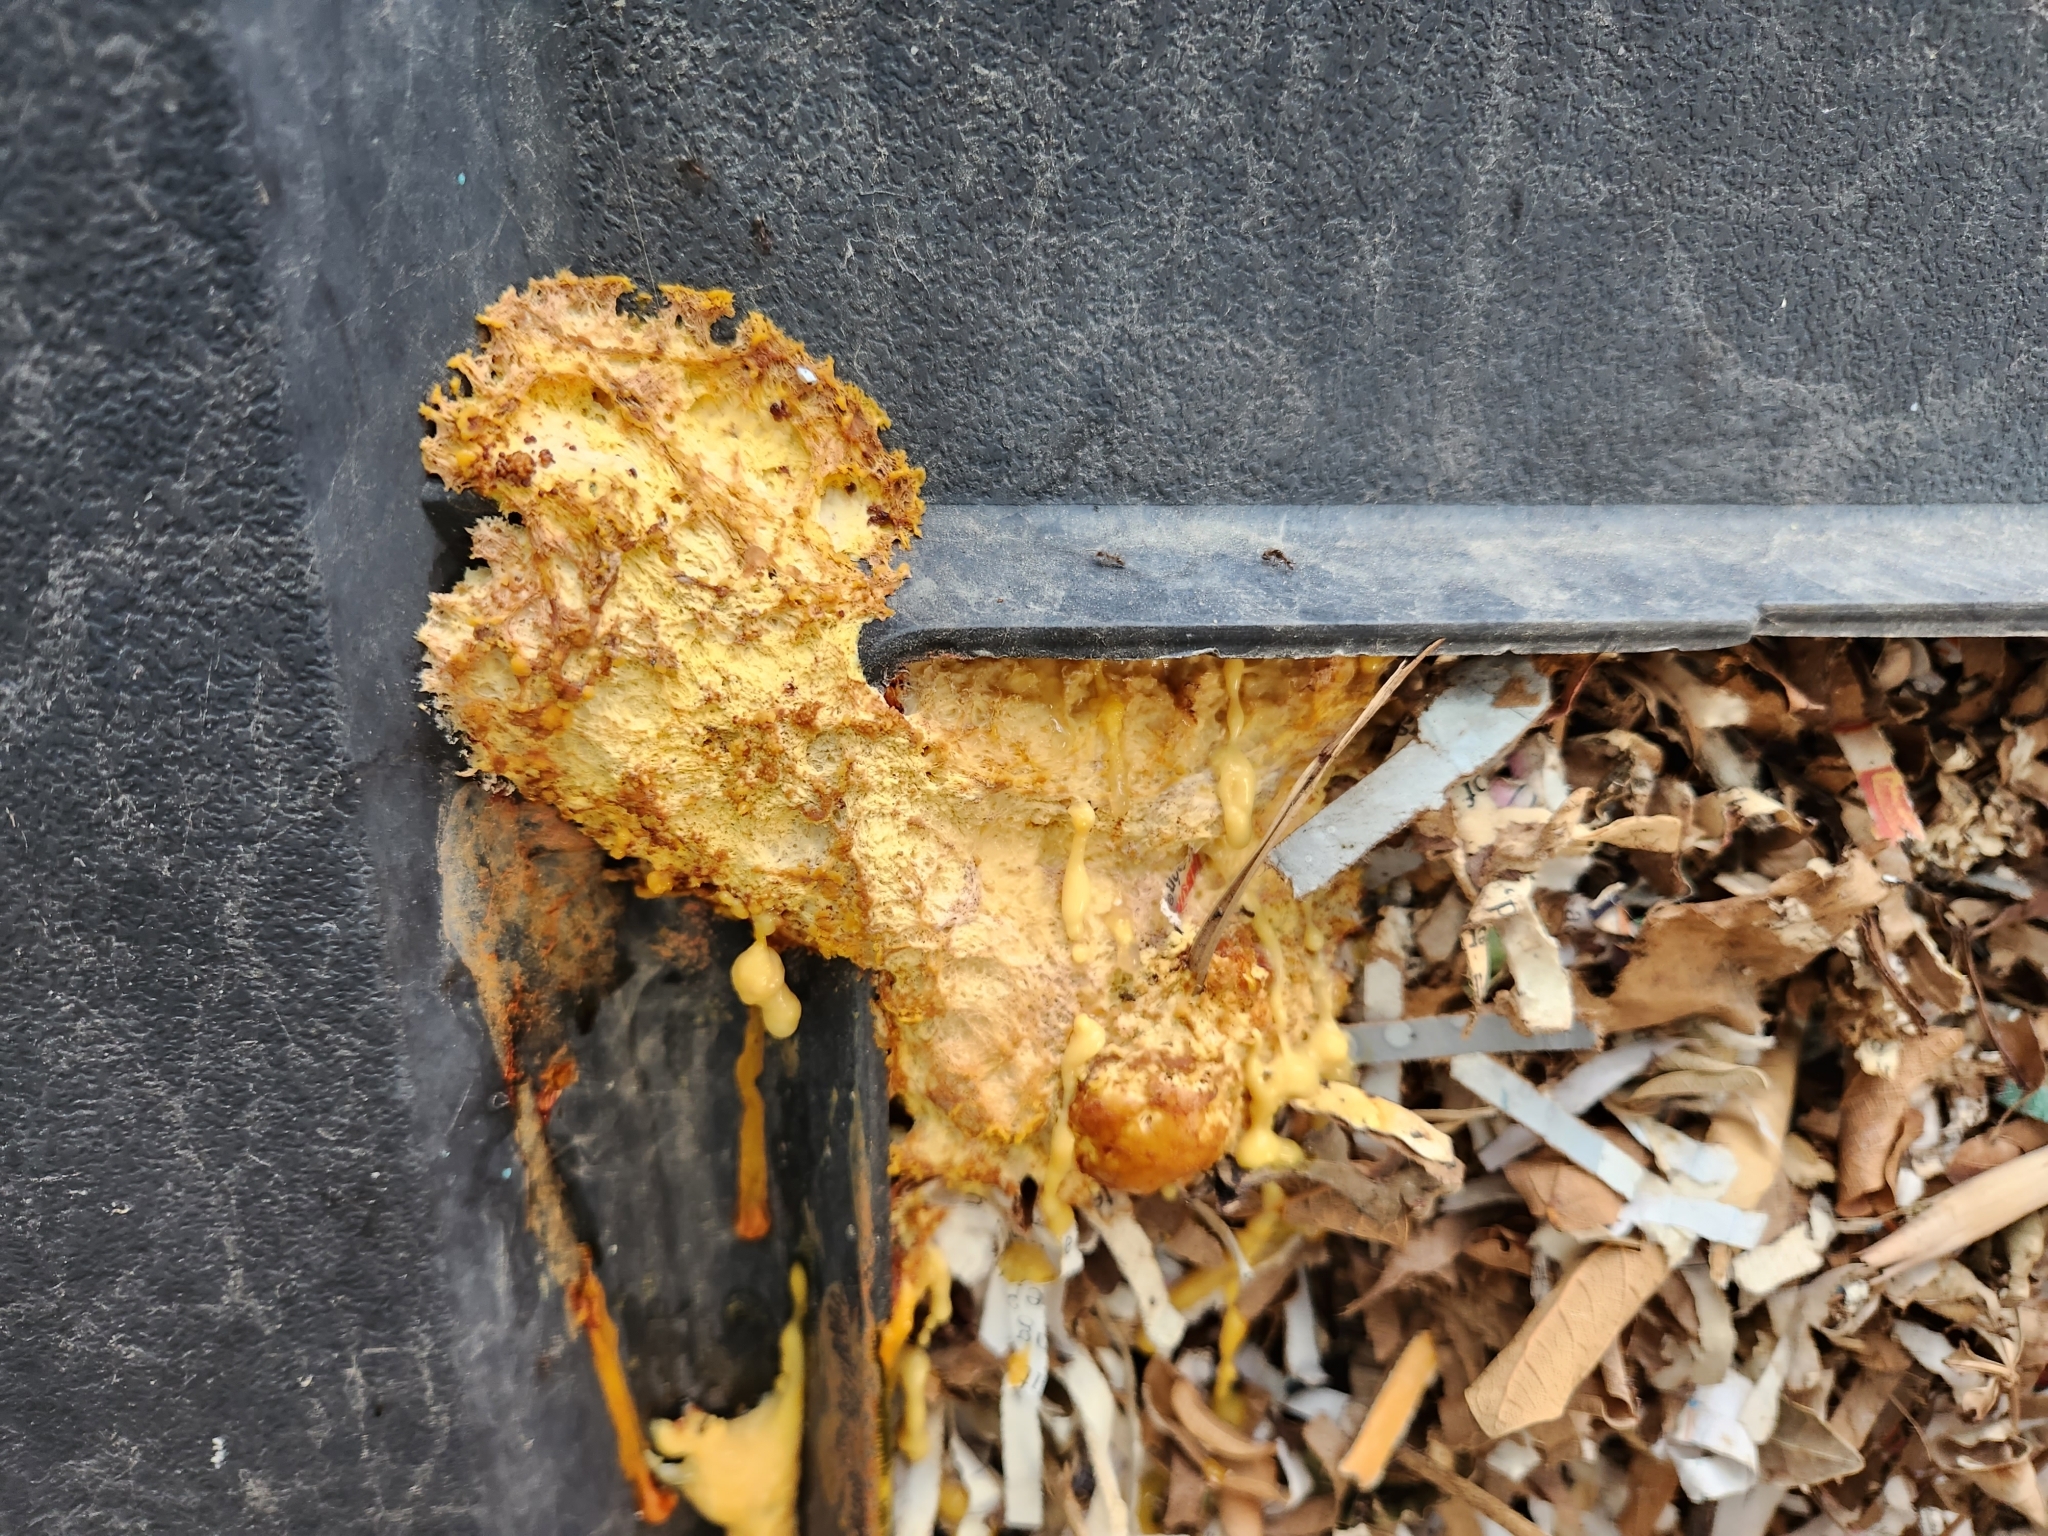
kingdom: Protozoa
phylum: Mycetozoa
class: Myxomycetes
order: Physarales
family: Physaraceae
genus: Fuligo
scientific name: Fuligo septica
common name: Dog vomit slime mold
